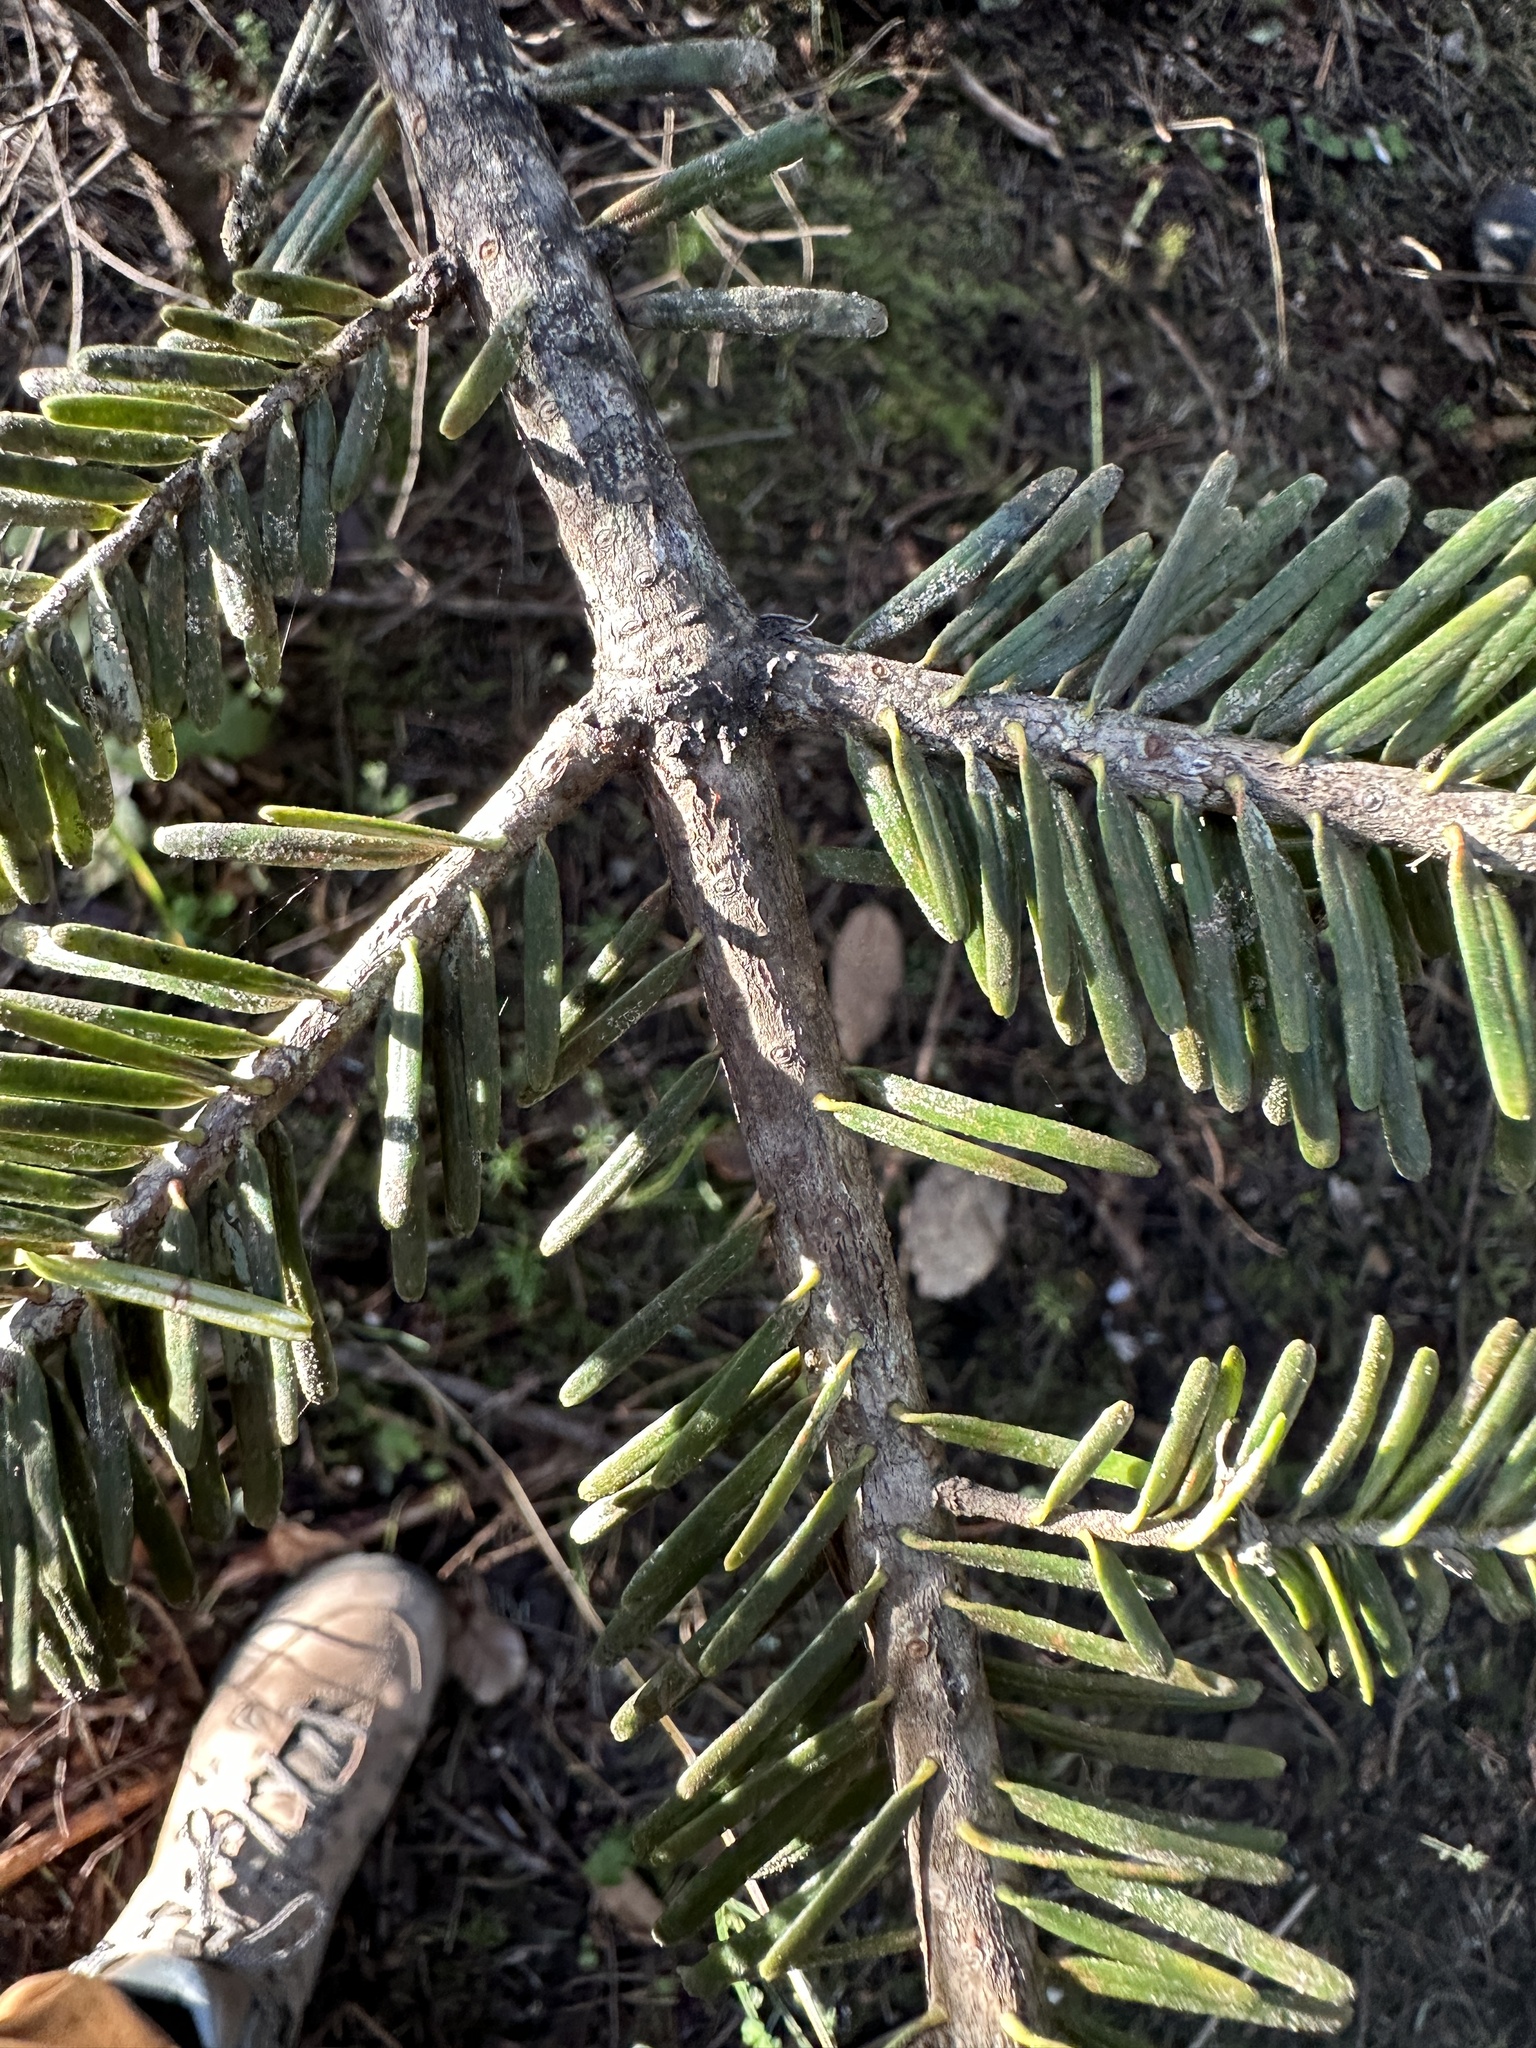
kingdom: Plantae
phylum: Tracheophyta
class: Pinopsida
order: Pinales
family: Pinaceae
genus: Abies
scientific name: Abies grandis
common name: Giant fir
